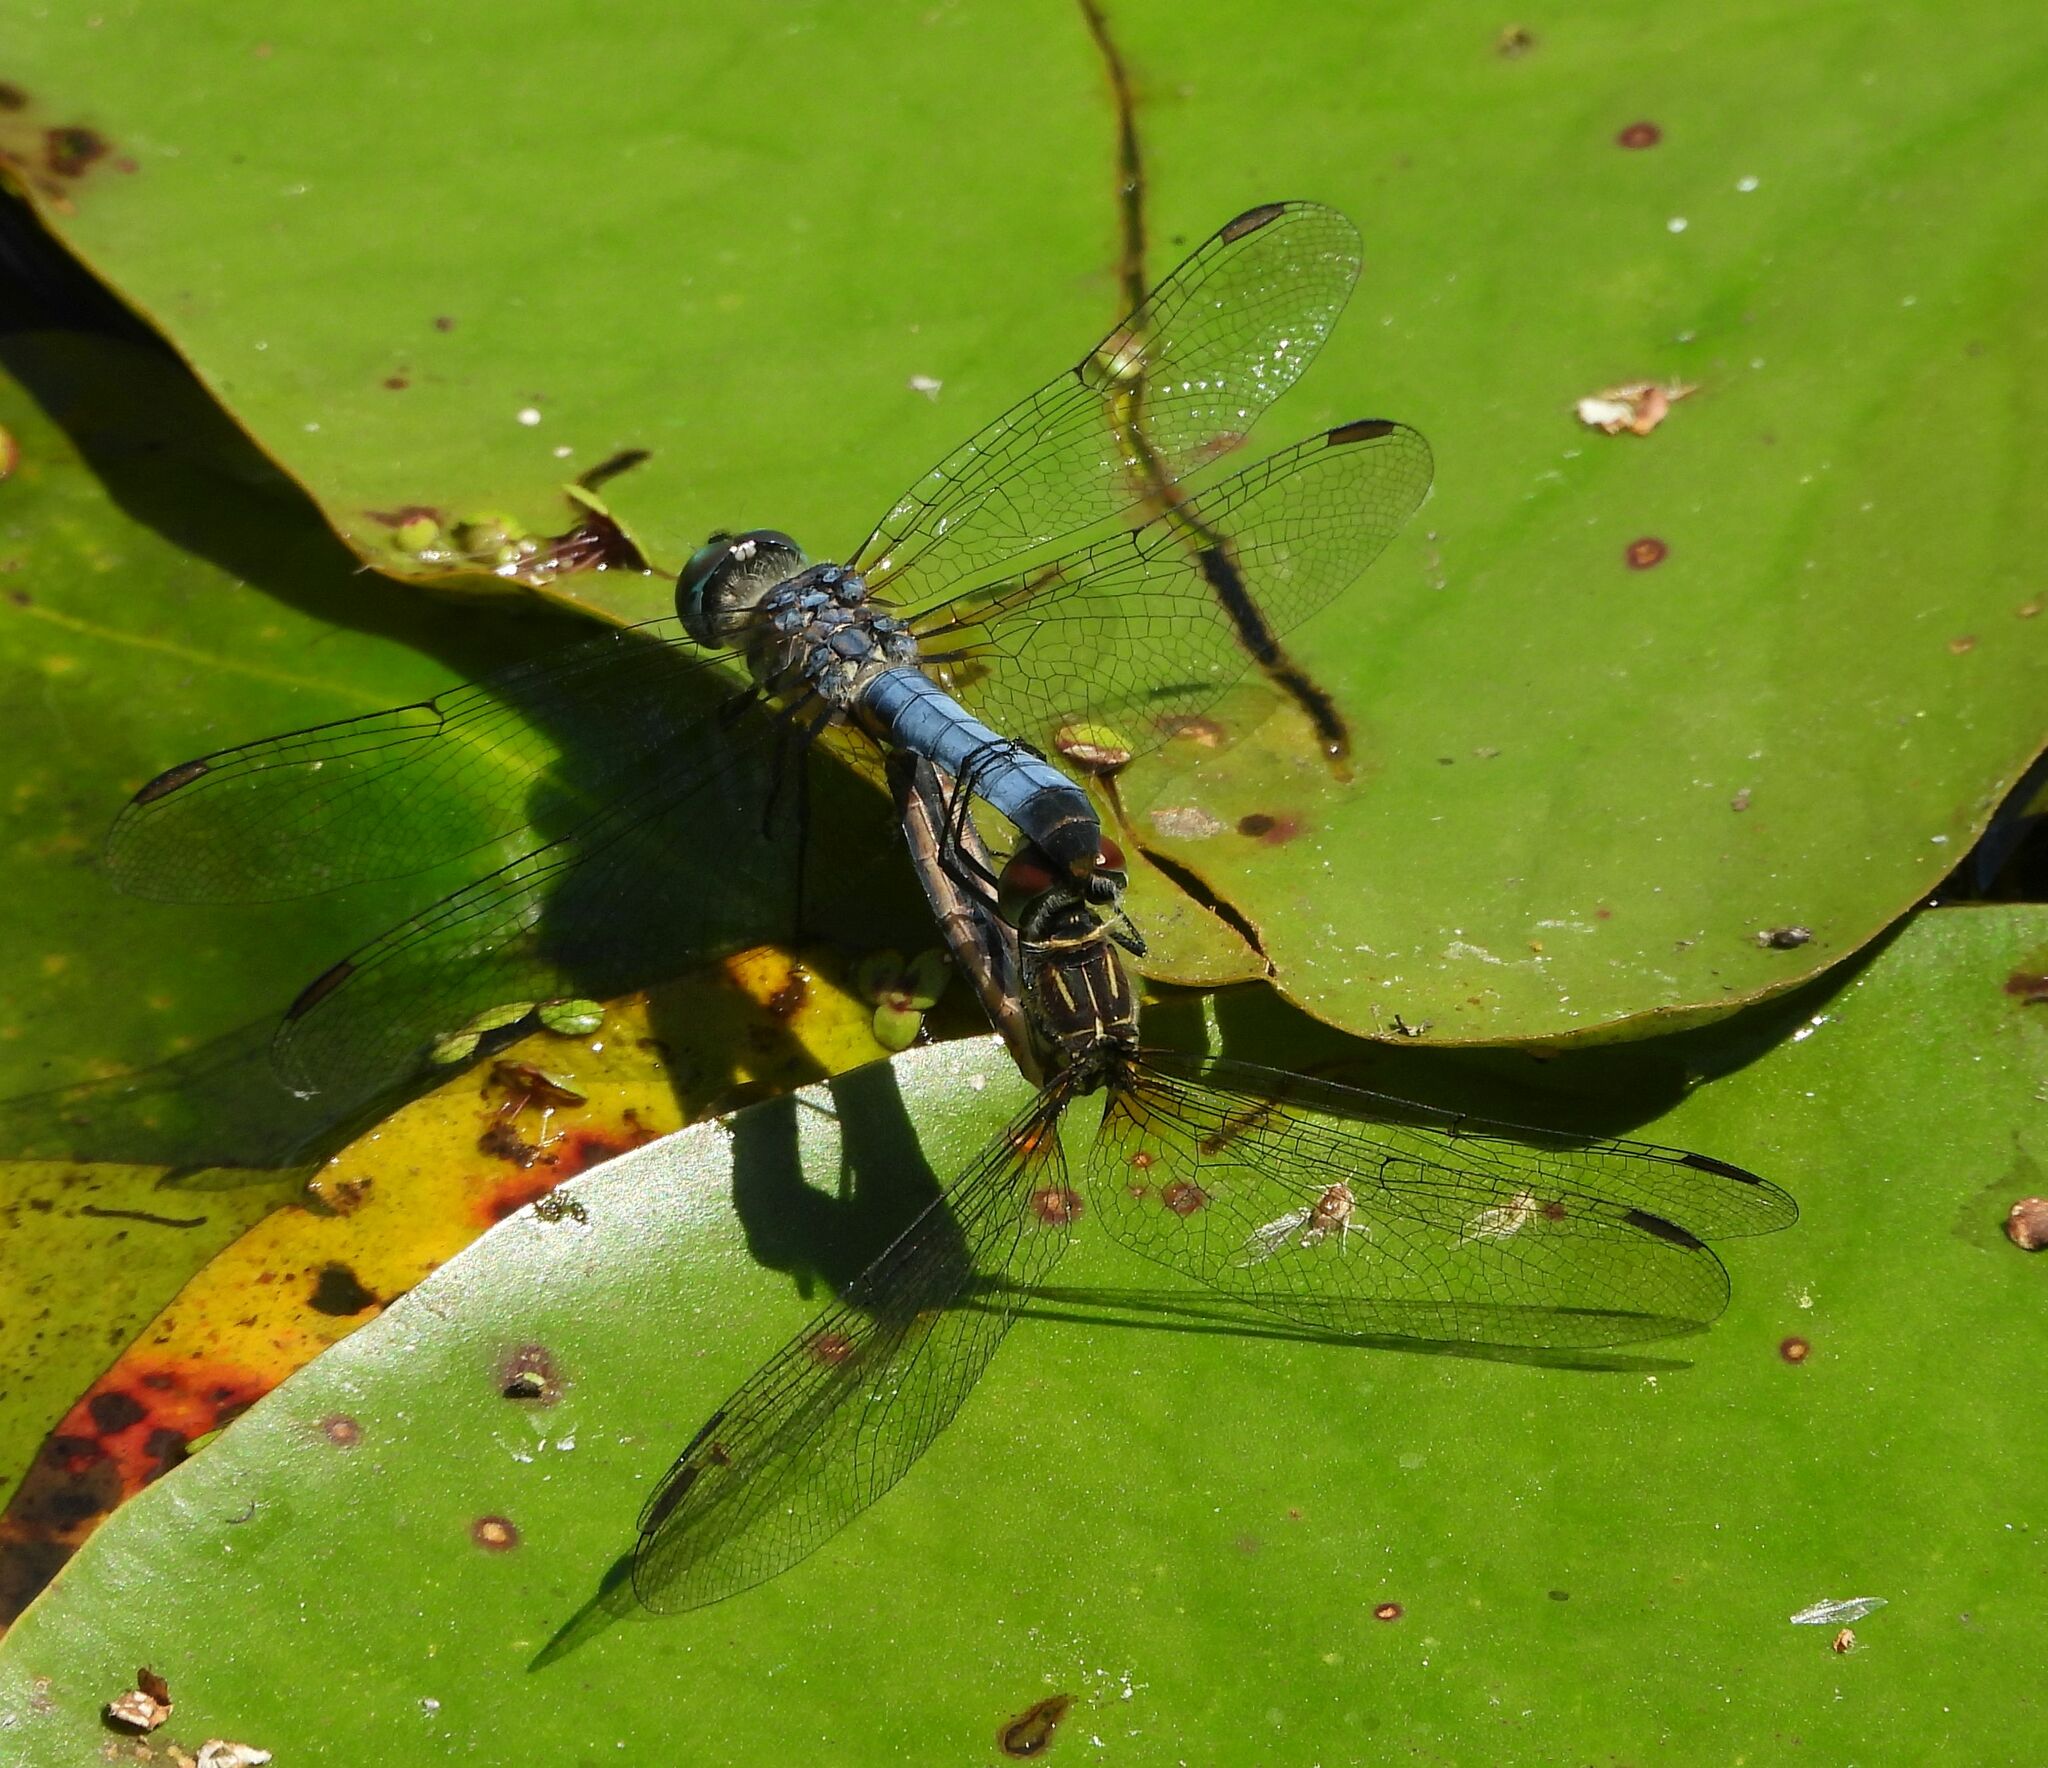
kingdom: Animalia
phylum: Arthropoda
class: Insecta
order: Odonata
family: Libellulidae
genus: Pachydiplax
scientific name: Pachydiplax longipennis
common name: Blue dasher
